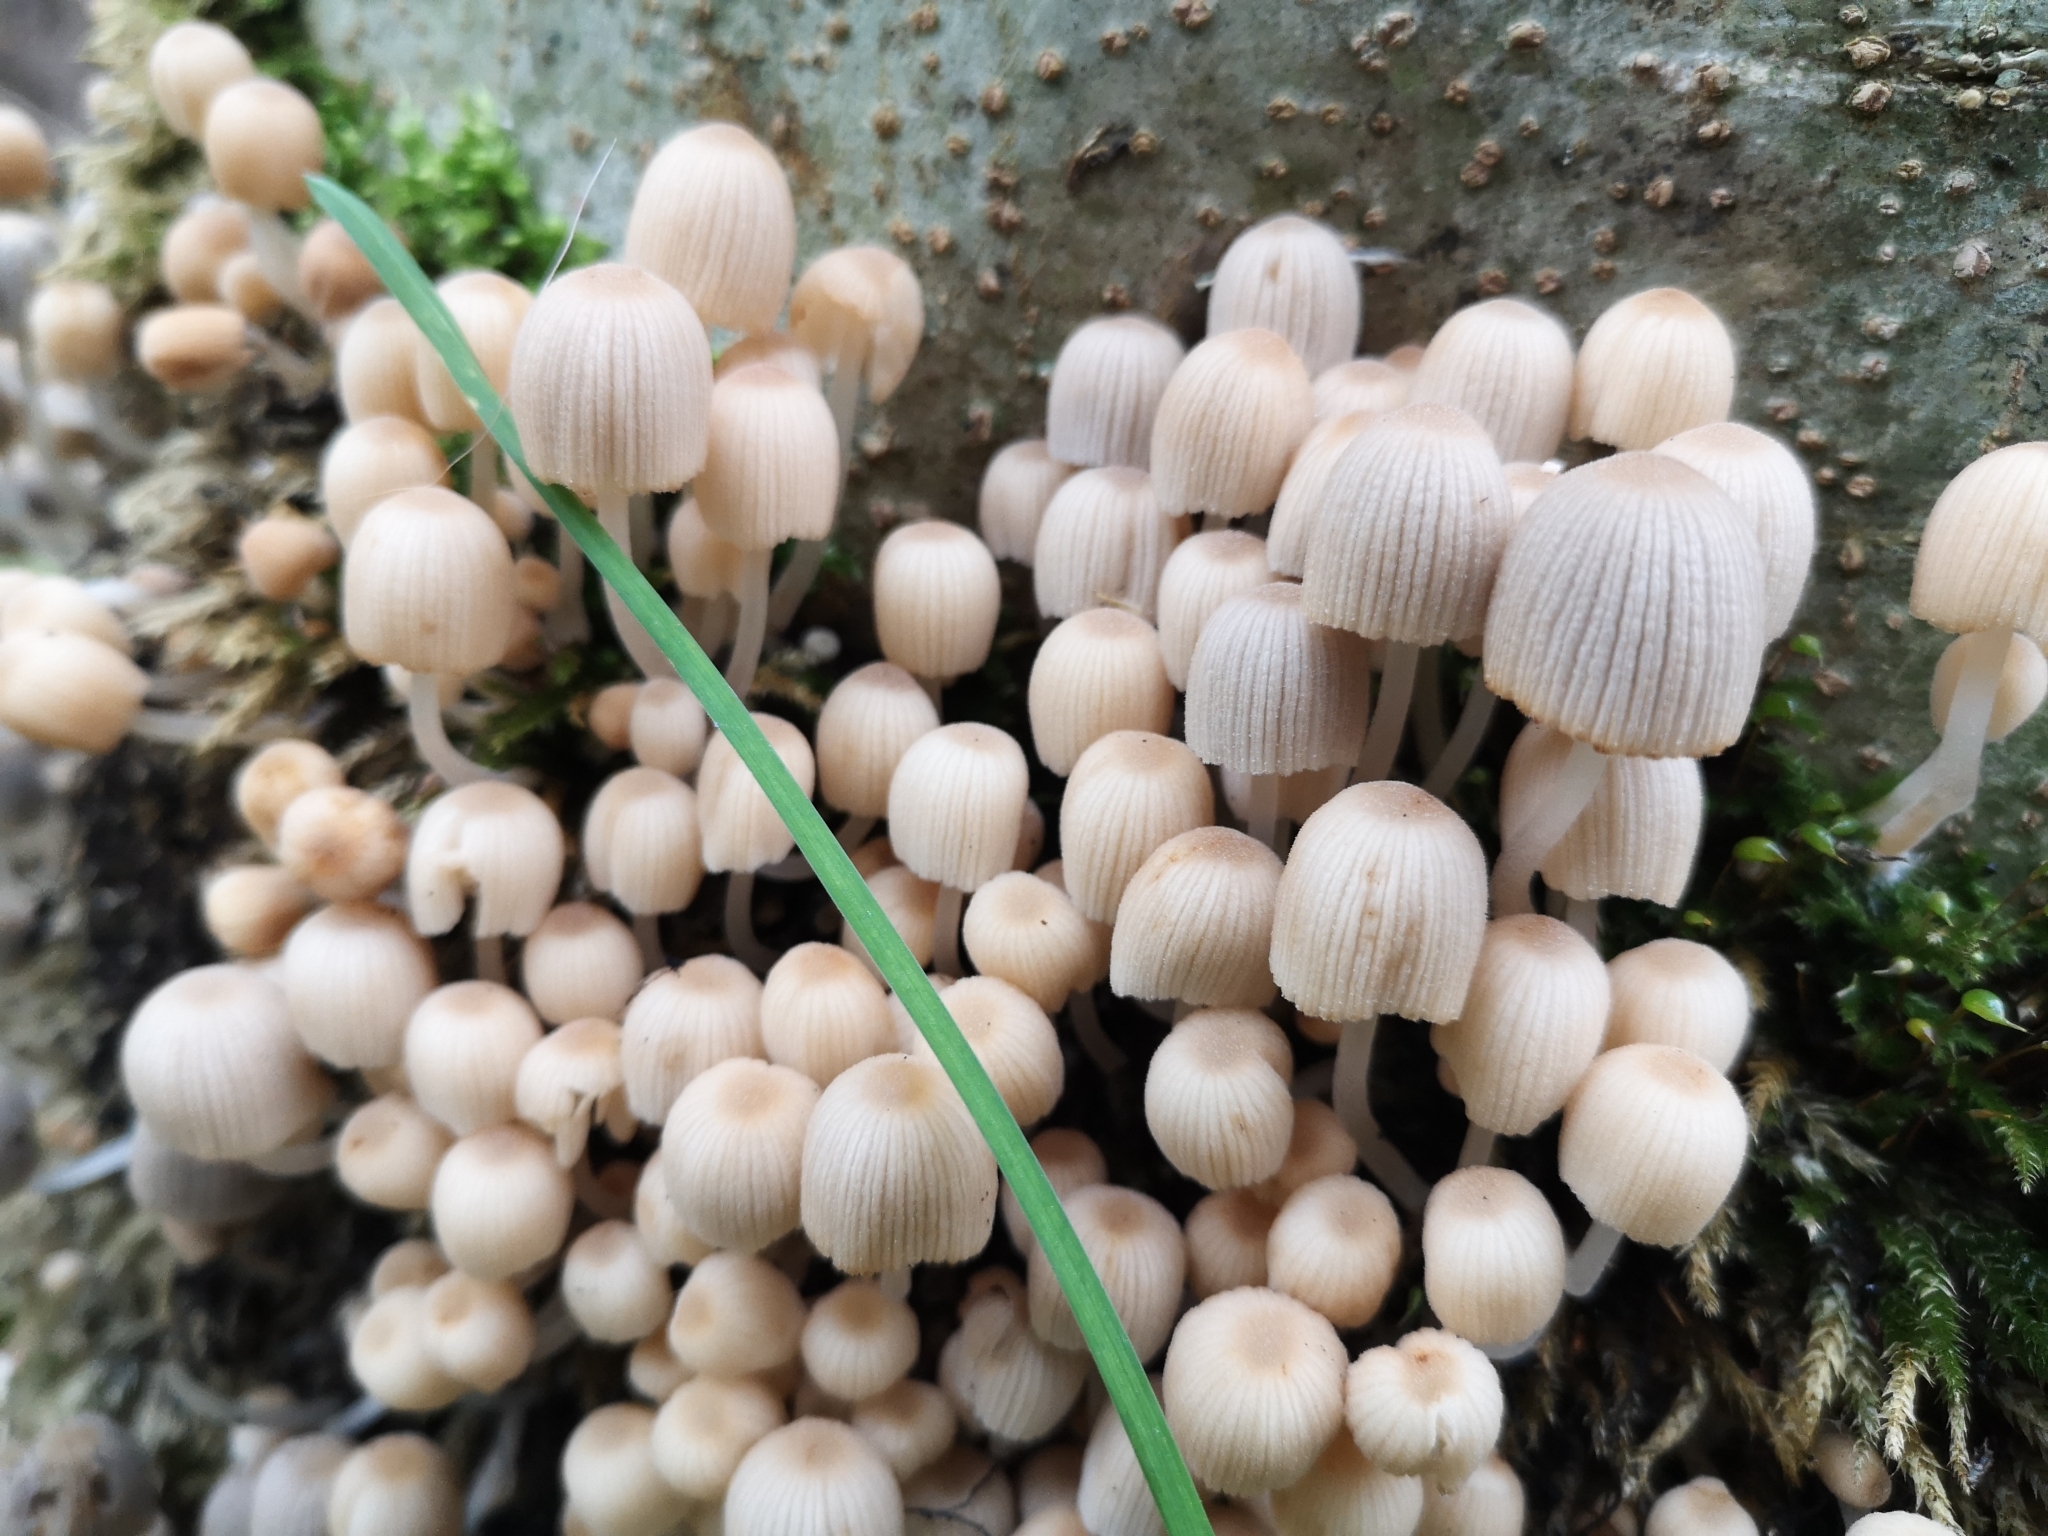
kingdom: Fungi
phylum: Basidiomycota
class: Agaricomycetes
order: Agaricales
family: Psathyrellaceae
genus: Coprinellus
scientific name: Coprinellus disseminatus
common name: Fairies' bonnets
